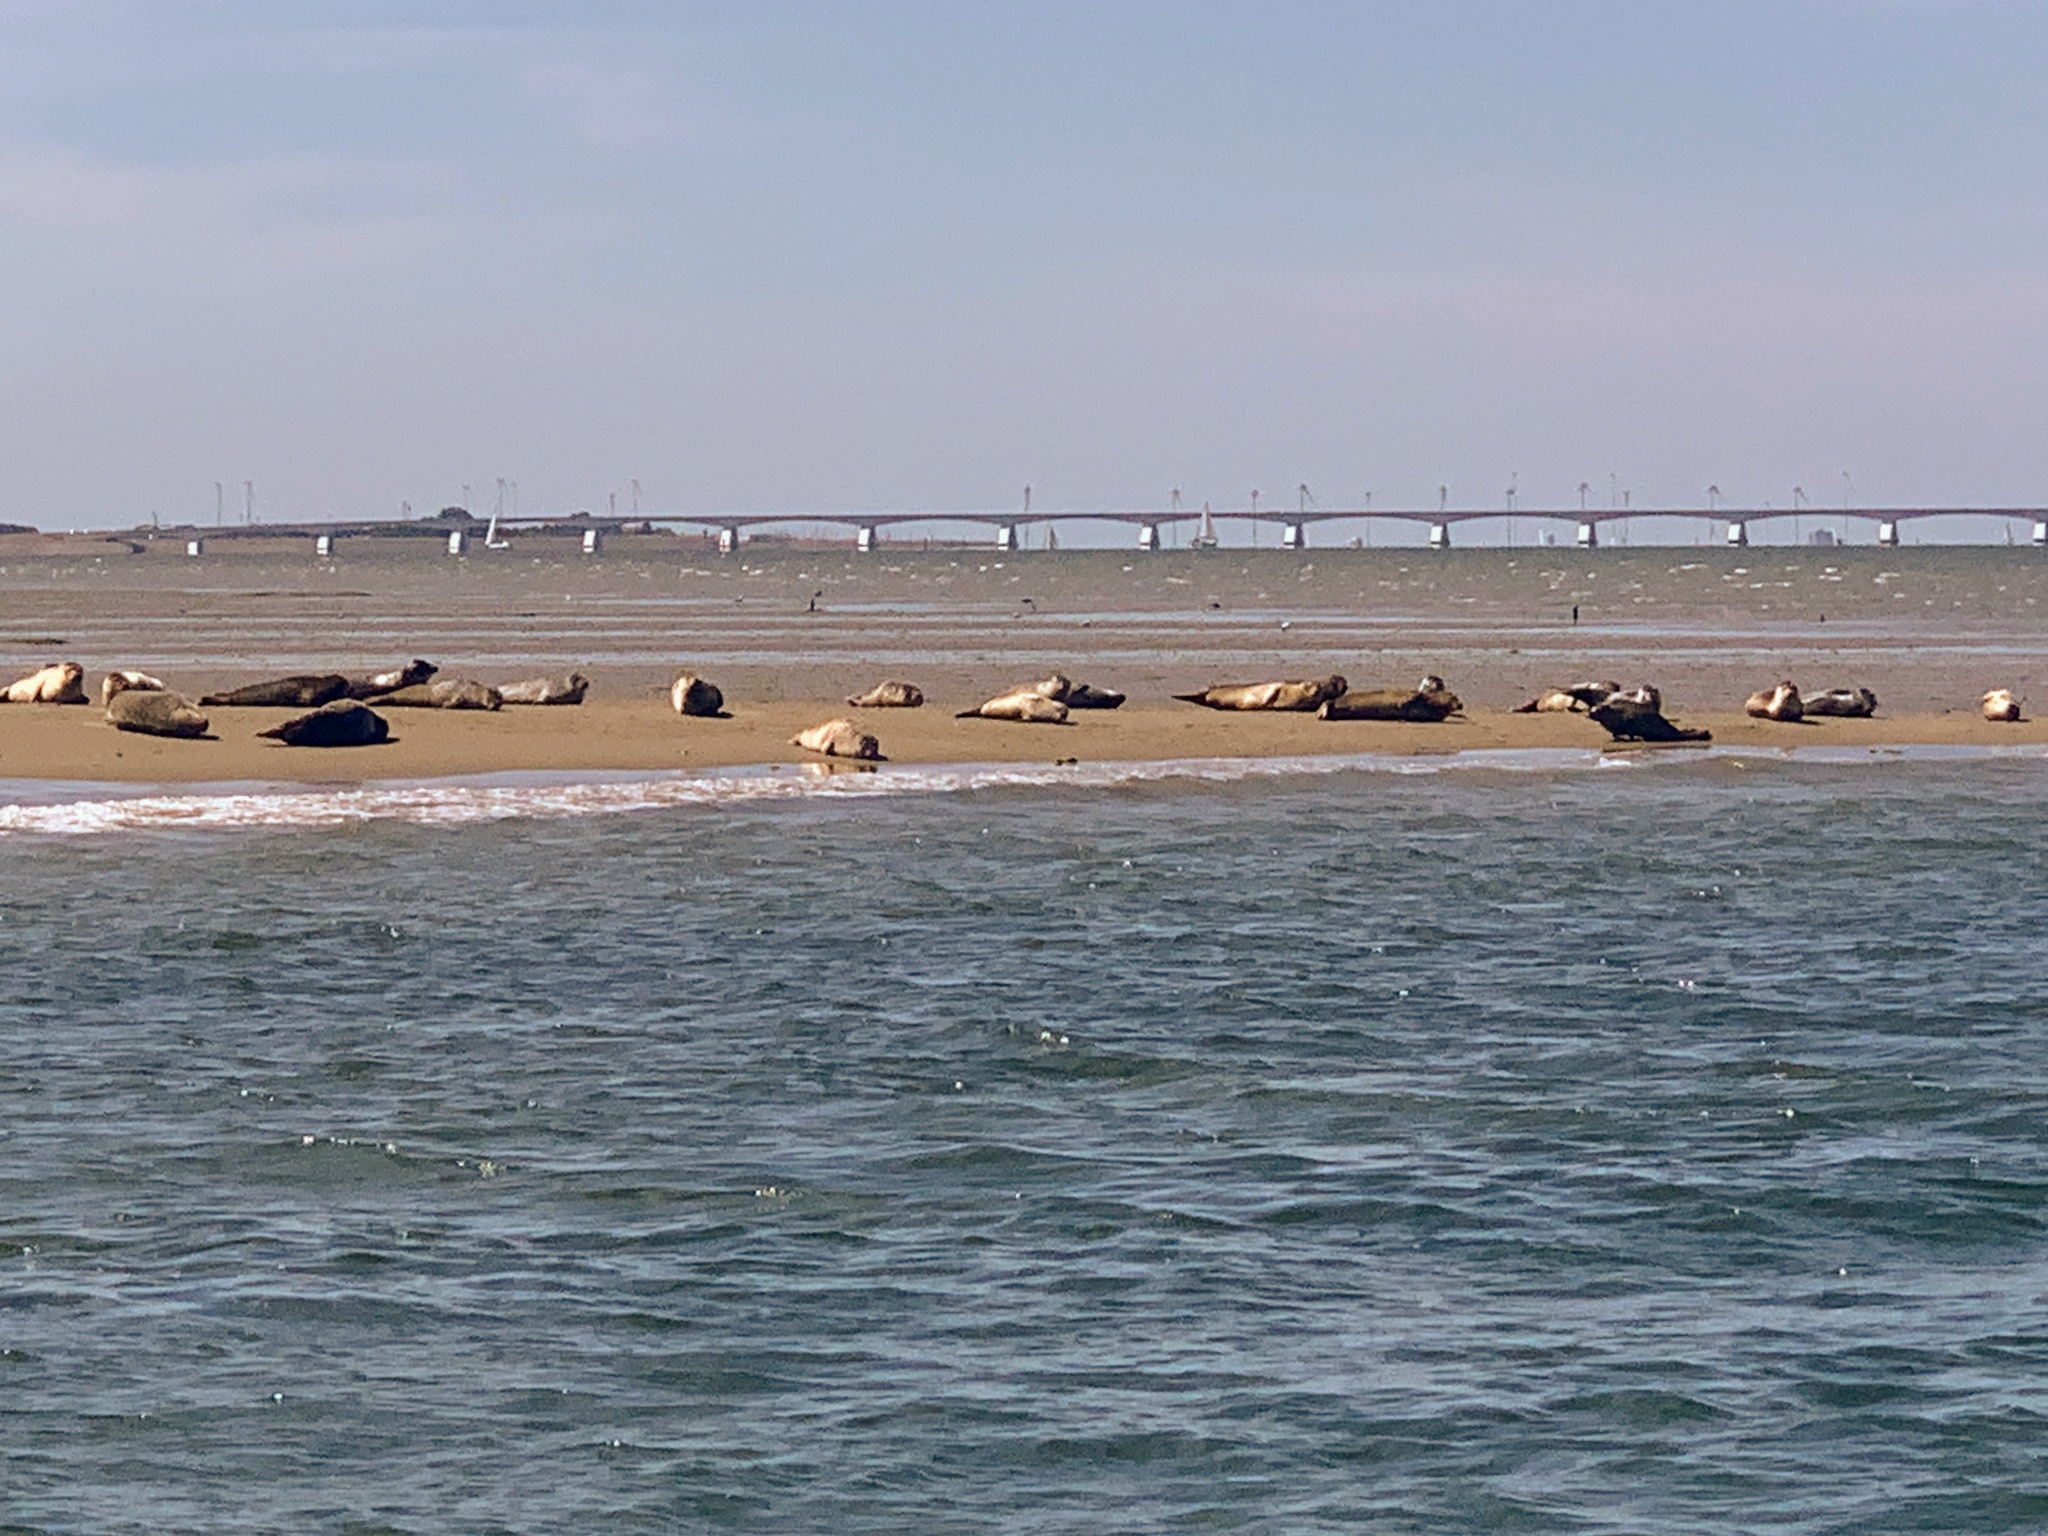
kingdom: Animalia
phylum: Chordata
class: Mammalia
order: Carnivora
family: Phocidae
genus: Phoca
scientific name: Phoca vitulina
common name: Harbor seal
